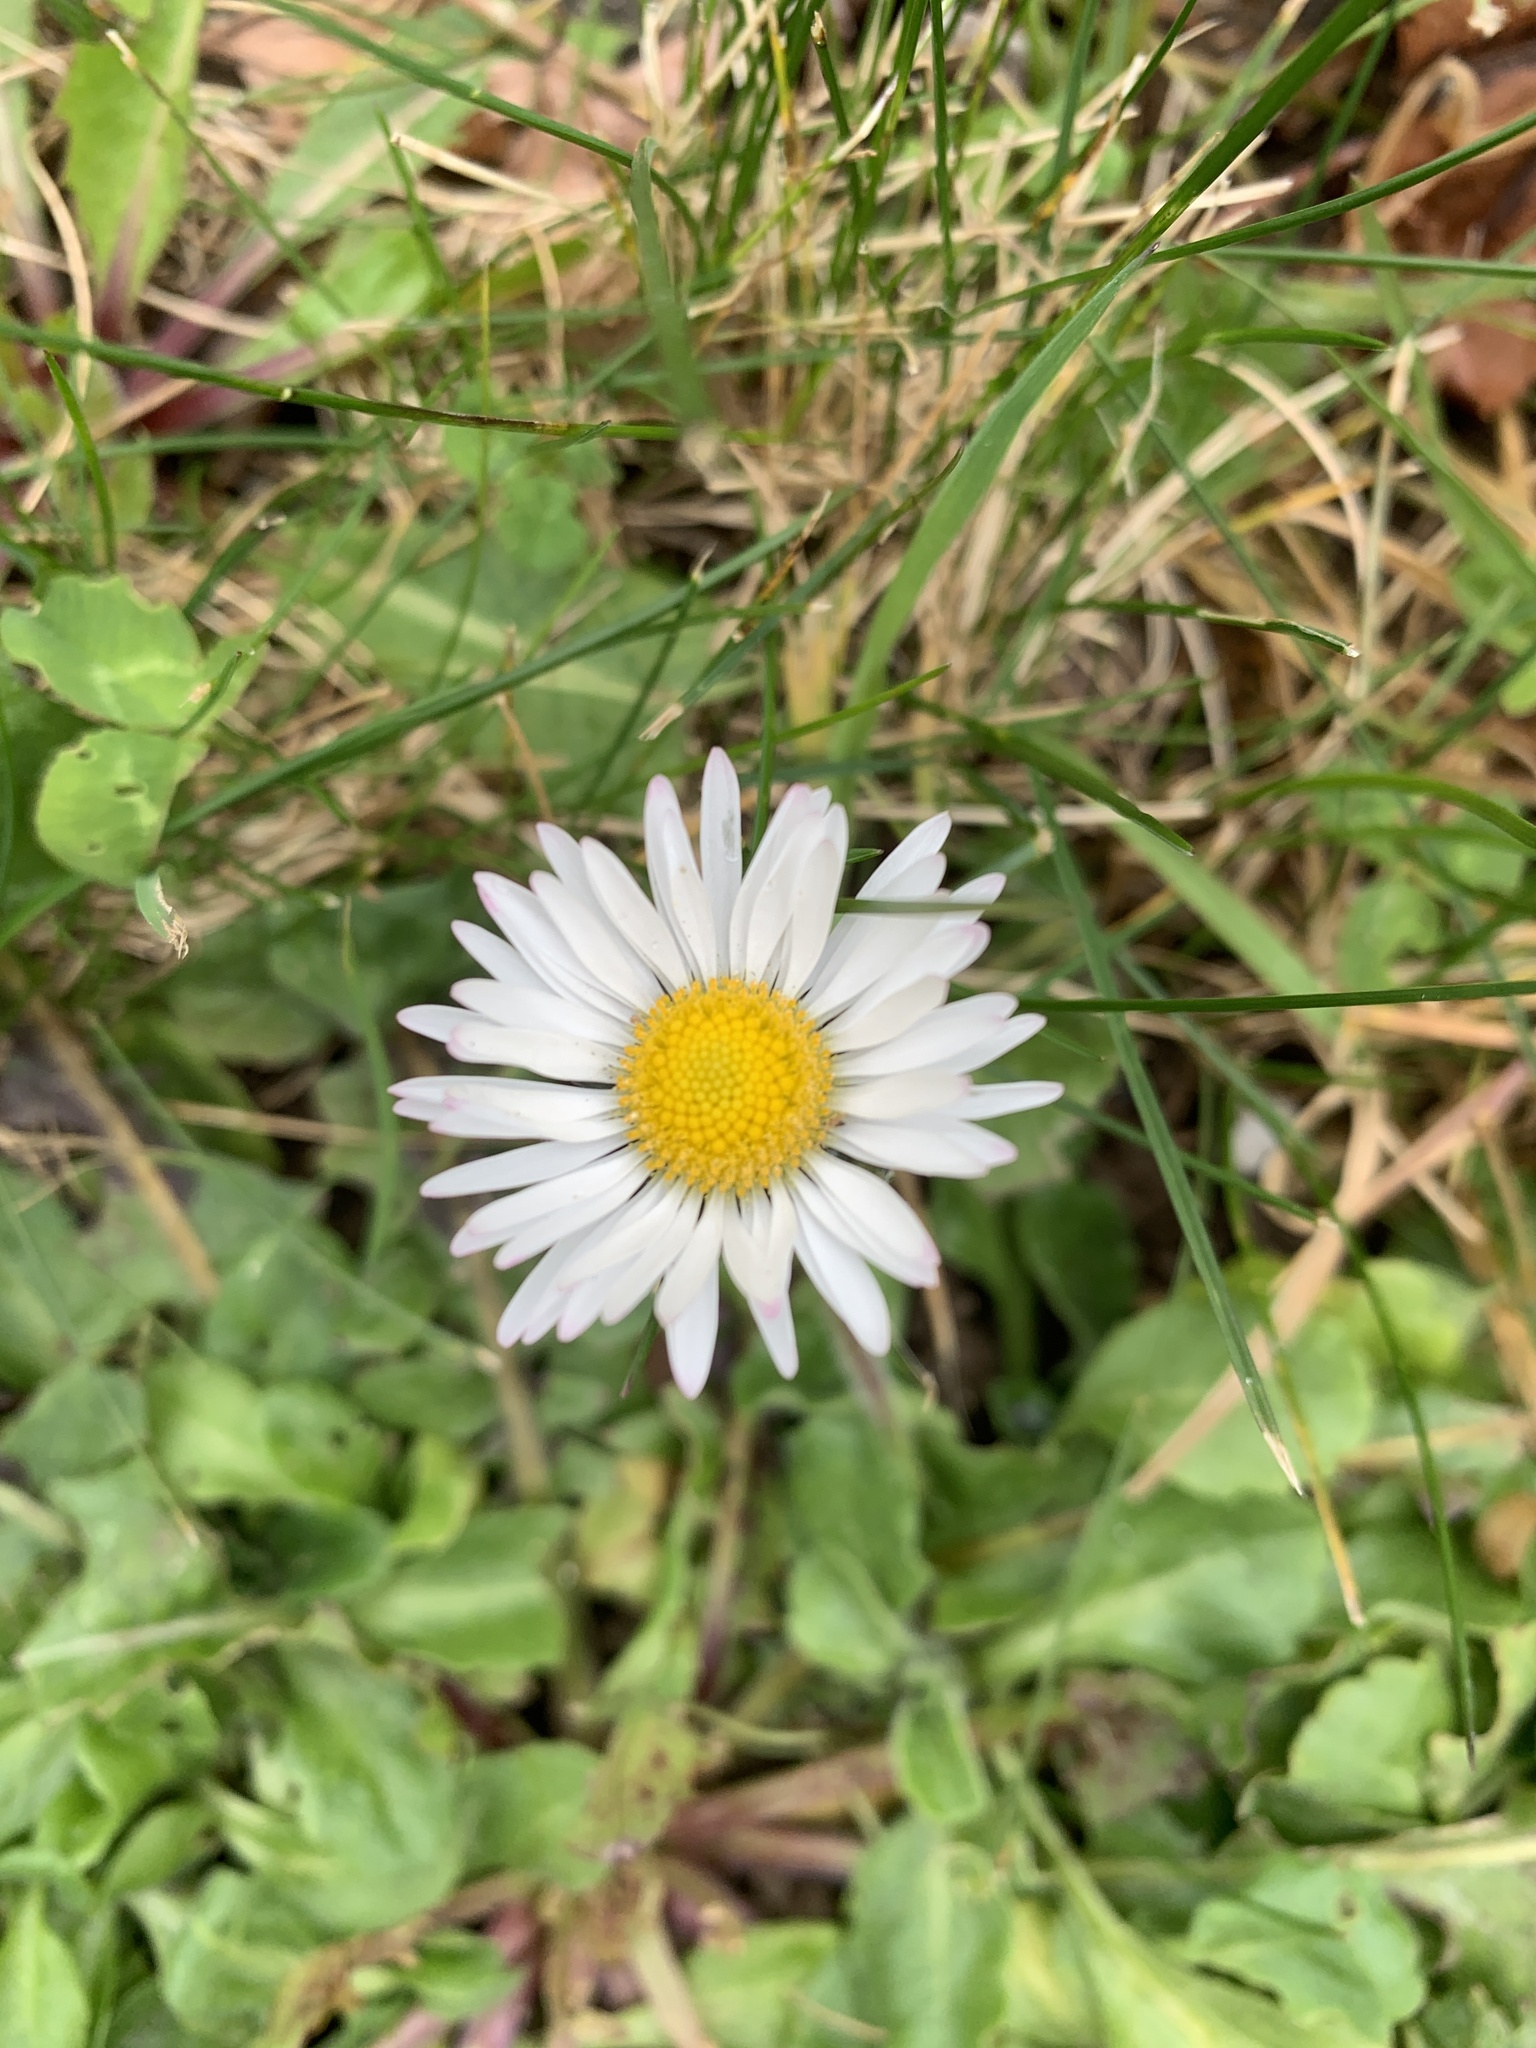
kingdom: Plantae
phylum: Tracheophyta
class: Magnoliopsida
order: Asterales
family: Asteraceae
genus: Bellis
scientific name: Bellis perennis
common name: Lawndaisy
